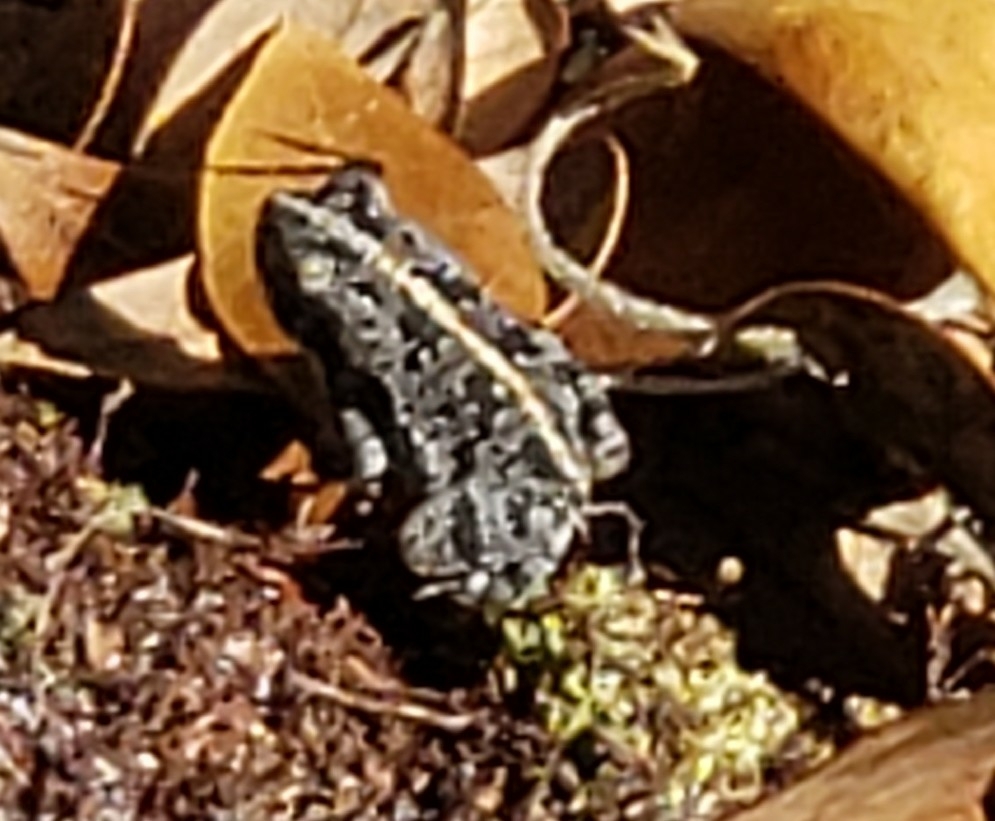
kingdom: Animalia
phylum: Chordata
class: Amphibia
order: Anura
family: Bufonidae
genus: Anaxyrus
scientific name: Anaxyrus quercicus
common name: Oak toad
